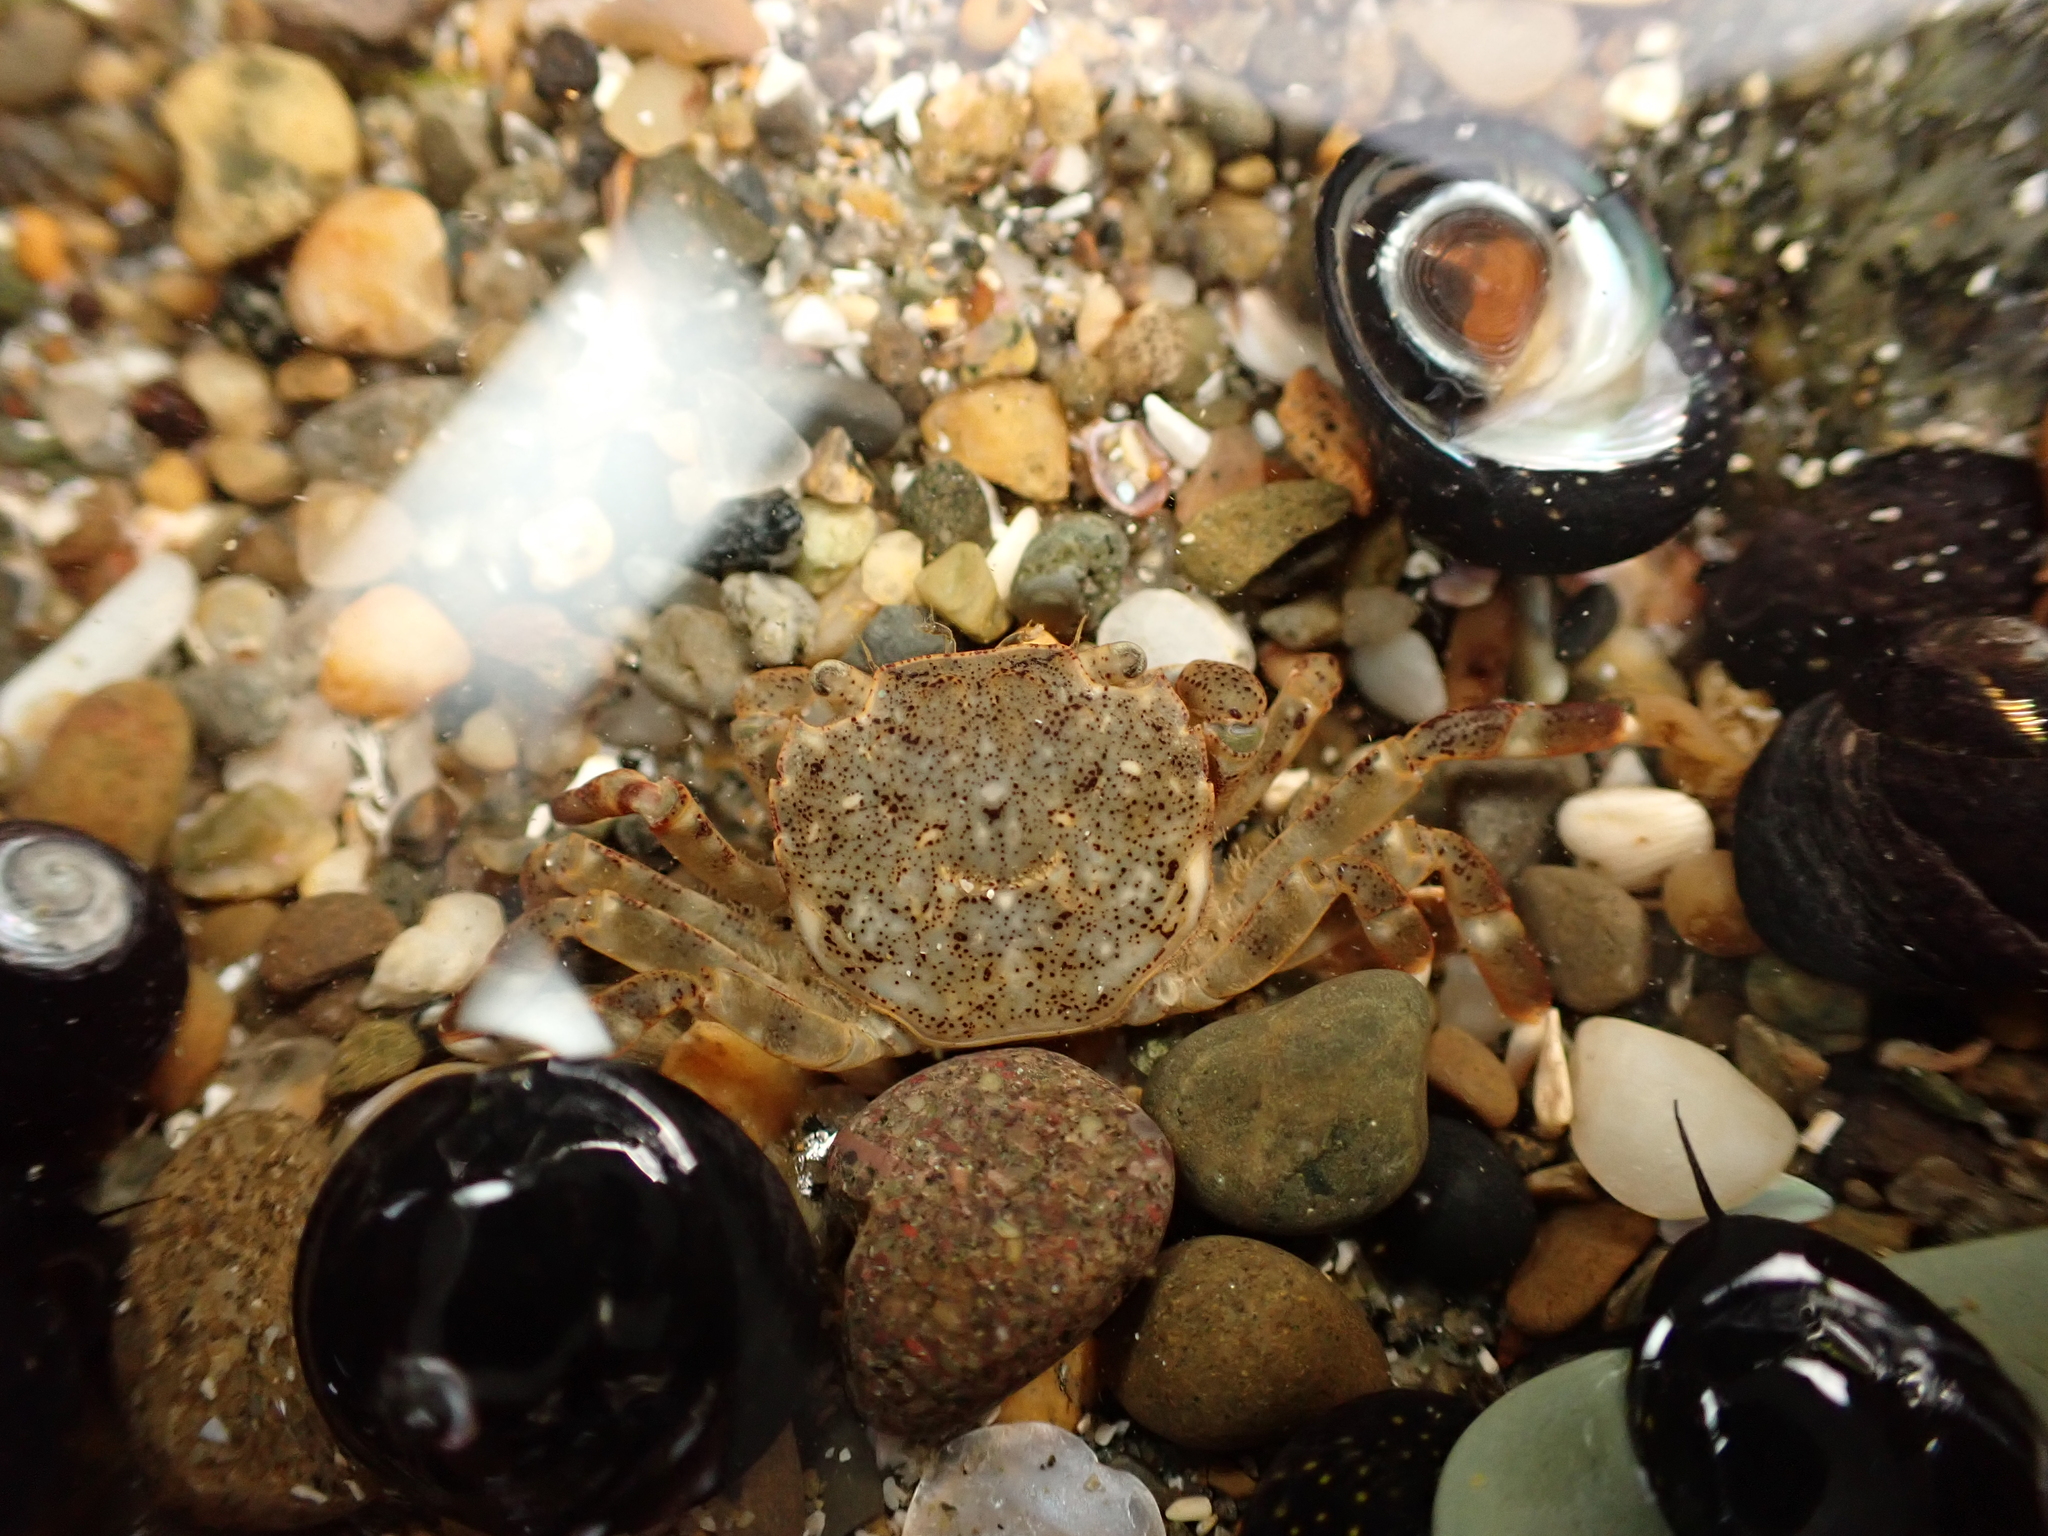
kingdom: Animalia
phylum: Arthropoda
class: Malacostraca
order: Decapoda
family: Varunidae
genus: Hemigrapsus
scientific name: Hemigrapsus sexdentatus
